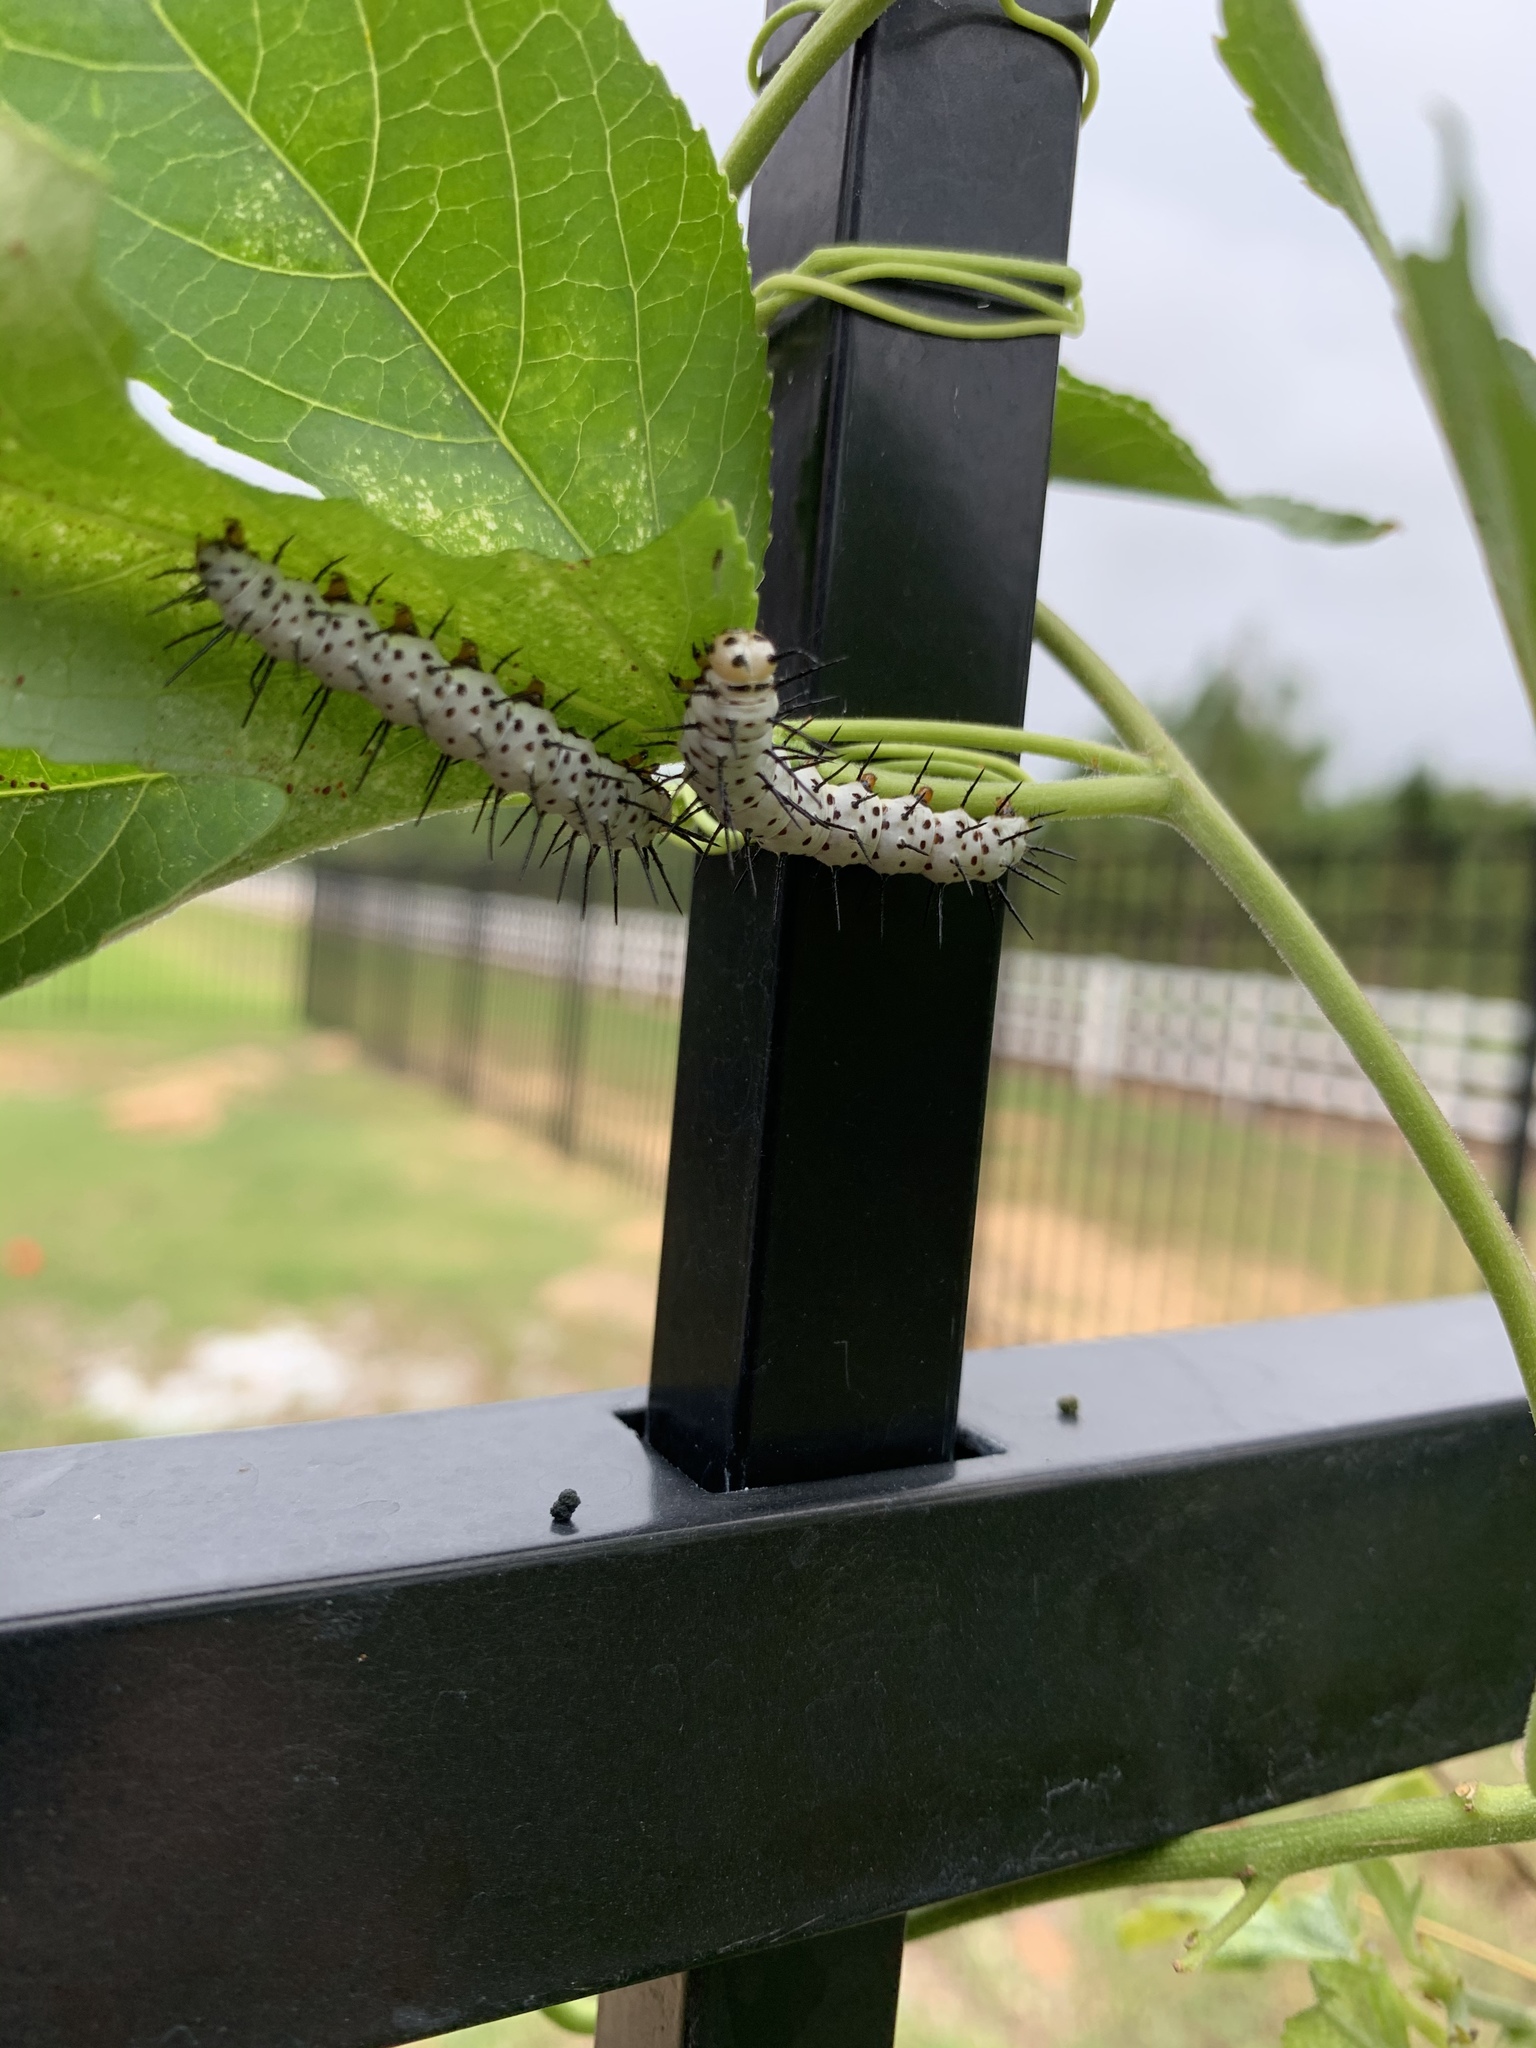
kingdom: Animalia
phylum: Arthropoda
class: Insecta
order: Lepidoptera
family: Nymphalidae
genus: Heliconius
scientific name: Heliconius charithonia
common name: Zebra long wing
